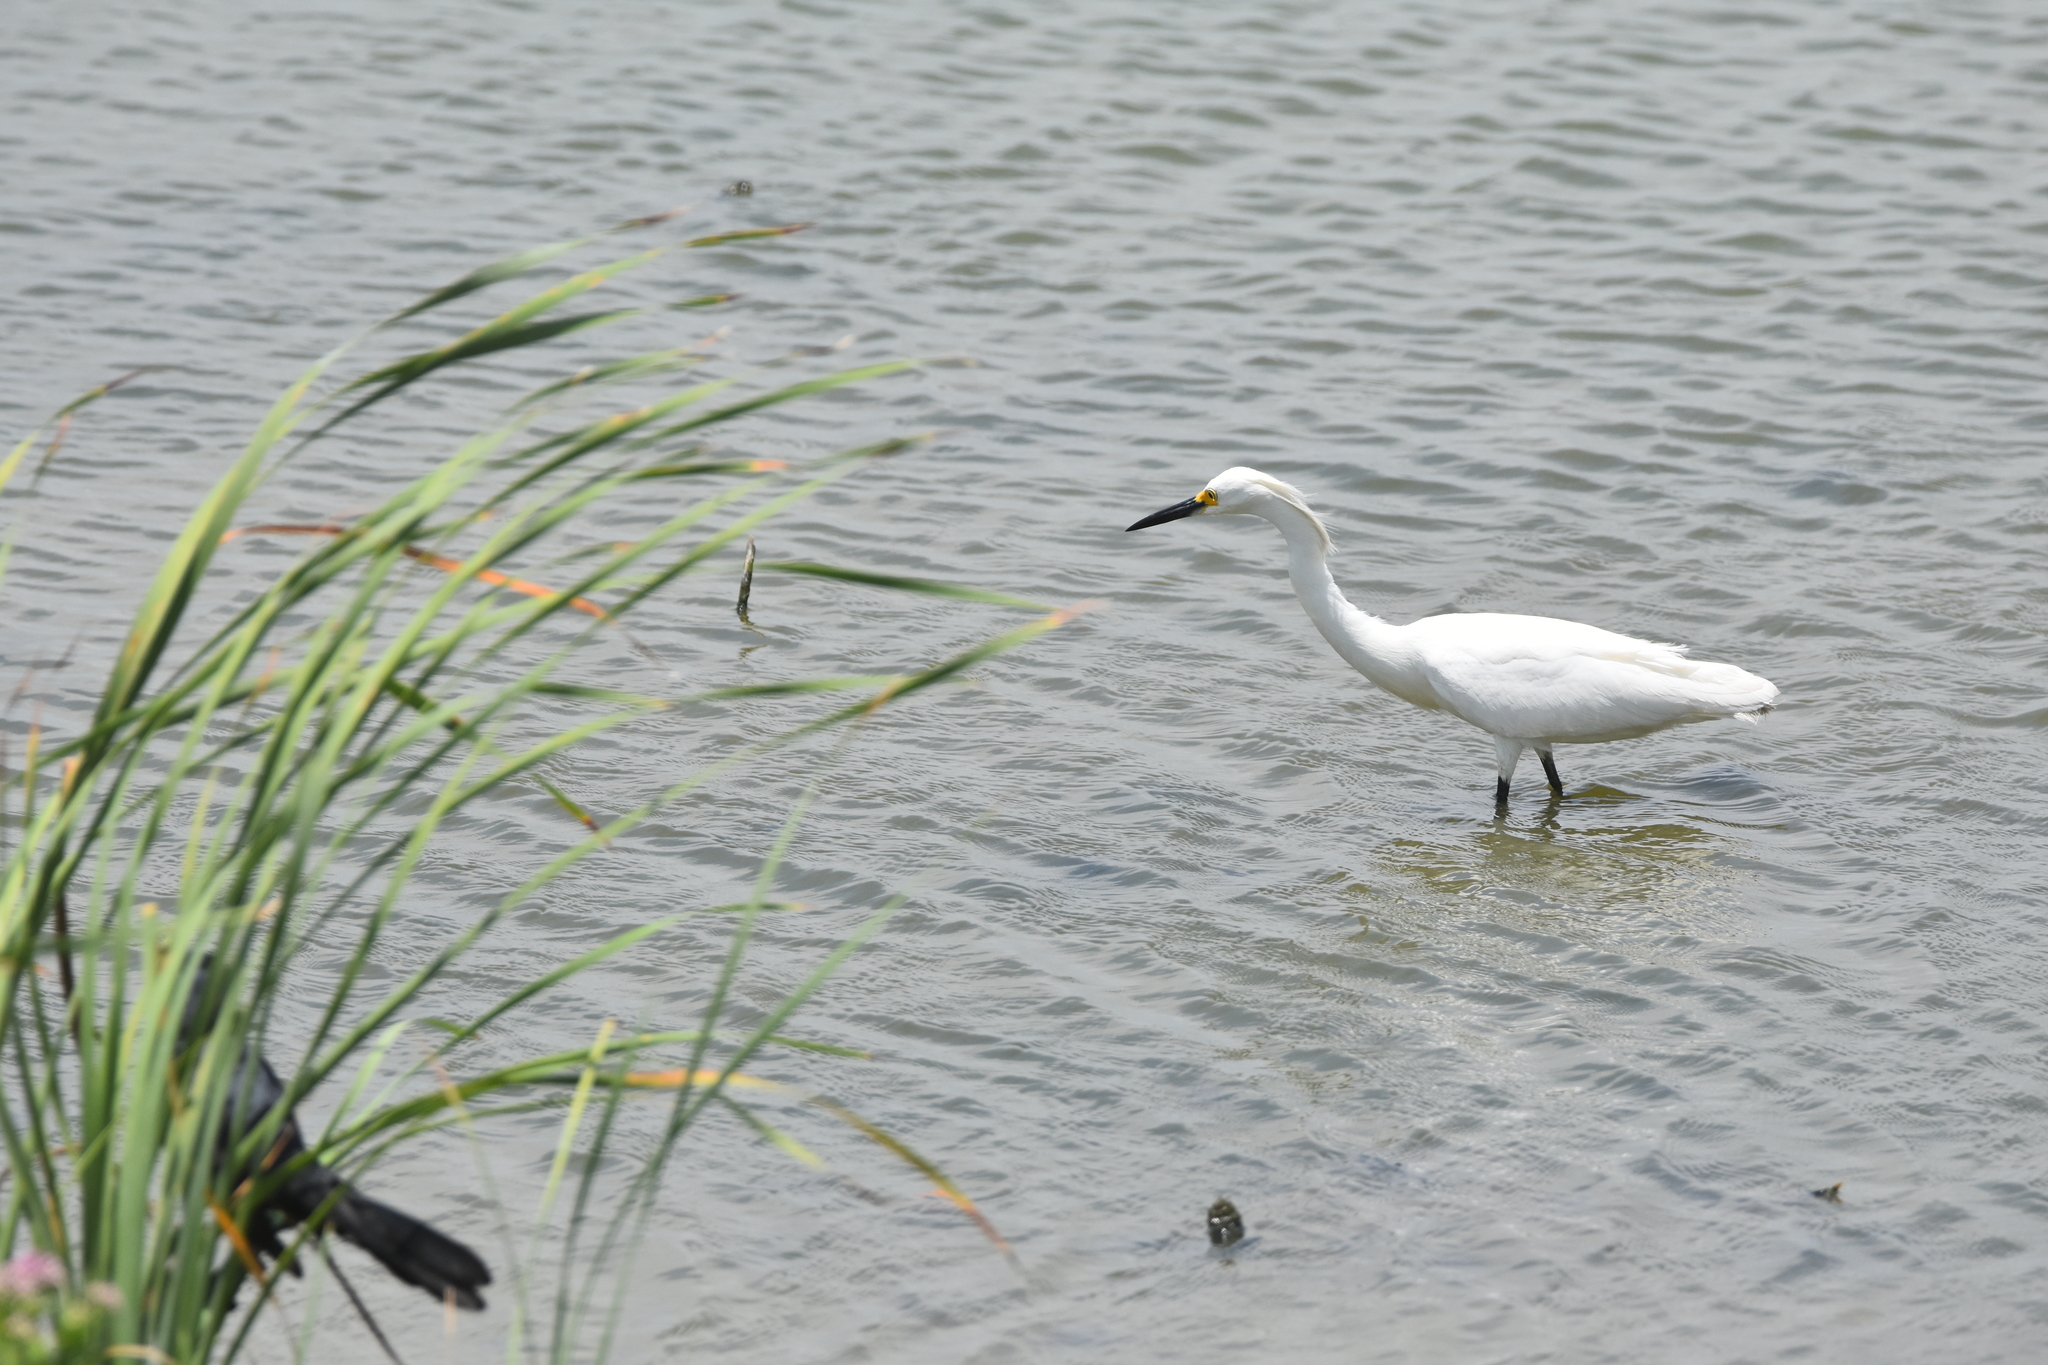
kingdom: Animalia
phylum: Chordata
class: Aves
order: Pelecaniformes
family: Ardeidae
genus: Egretta
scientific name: Egretta thula
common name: Snowy egret
